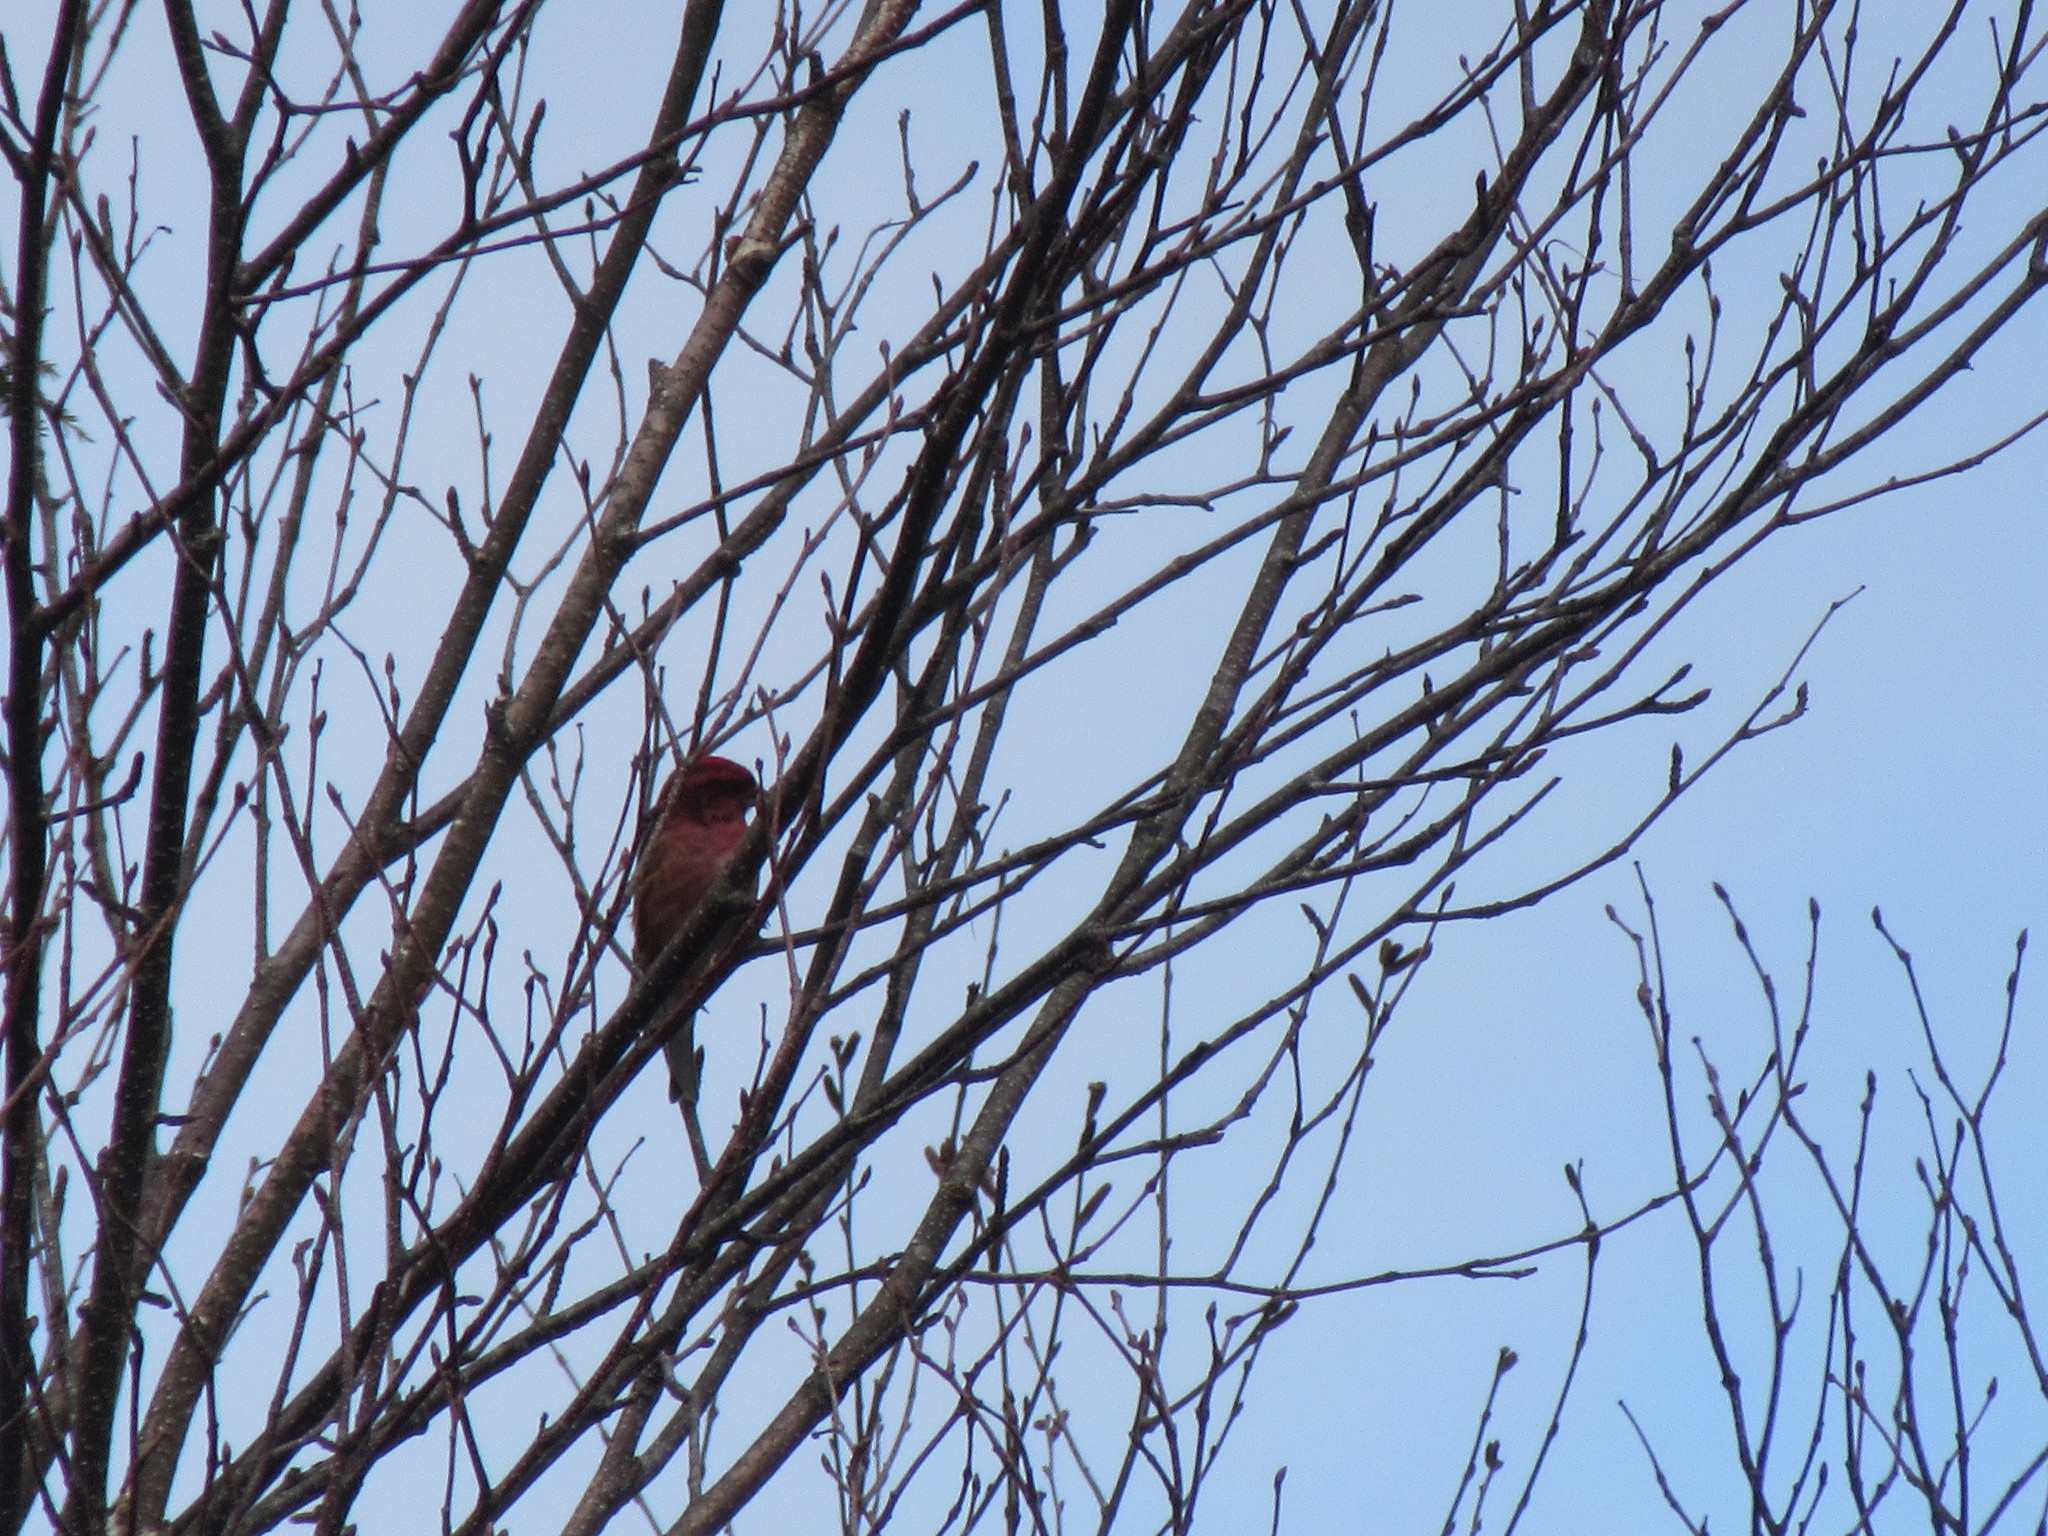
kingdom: Animalia
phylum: Chordata
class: Aves
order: Passeriformes
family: Fringillidae
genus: Haemorhous
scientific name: Haemorhous purpureus
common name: Purple finch
